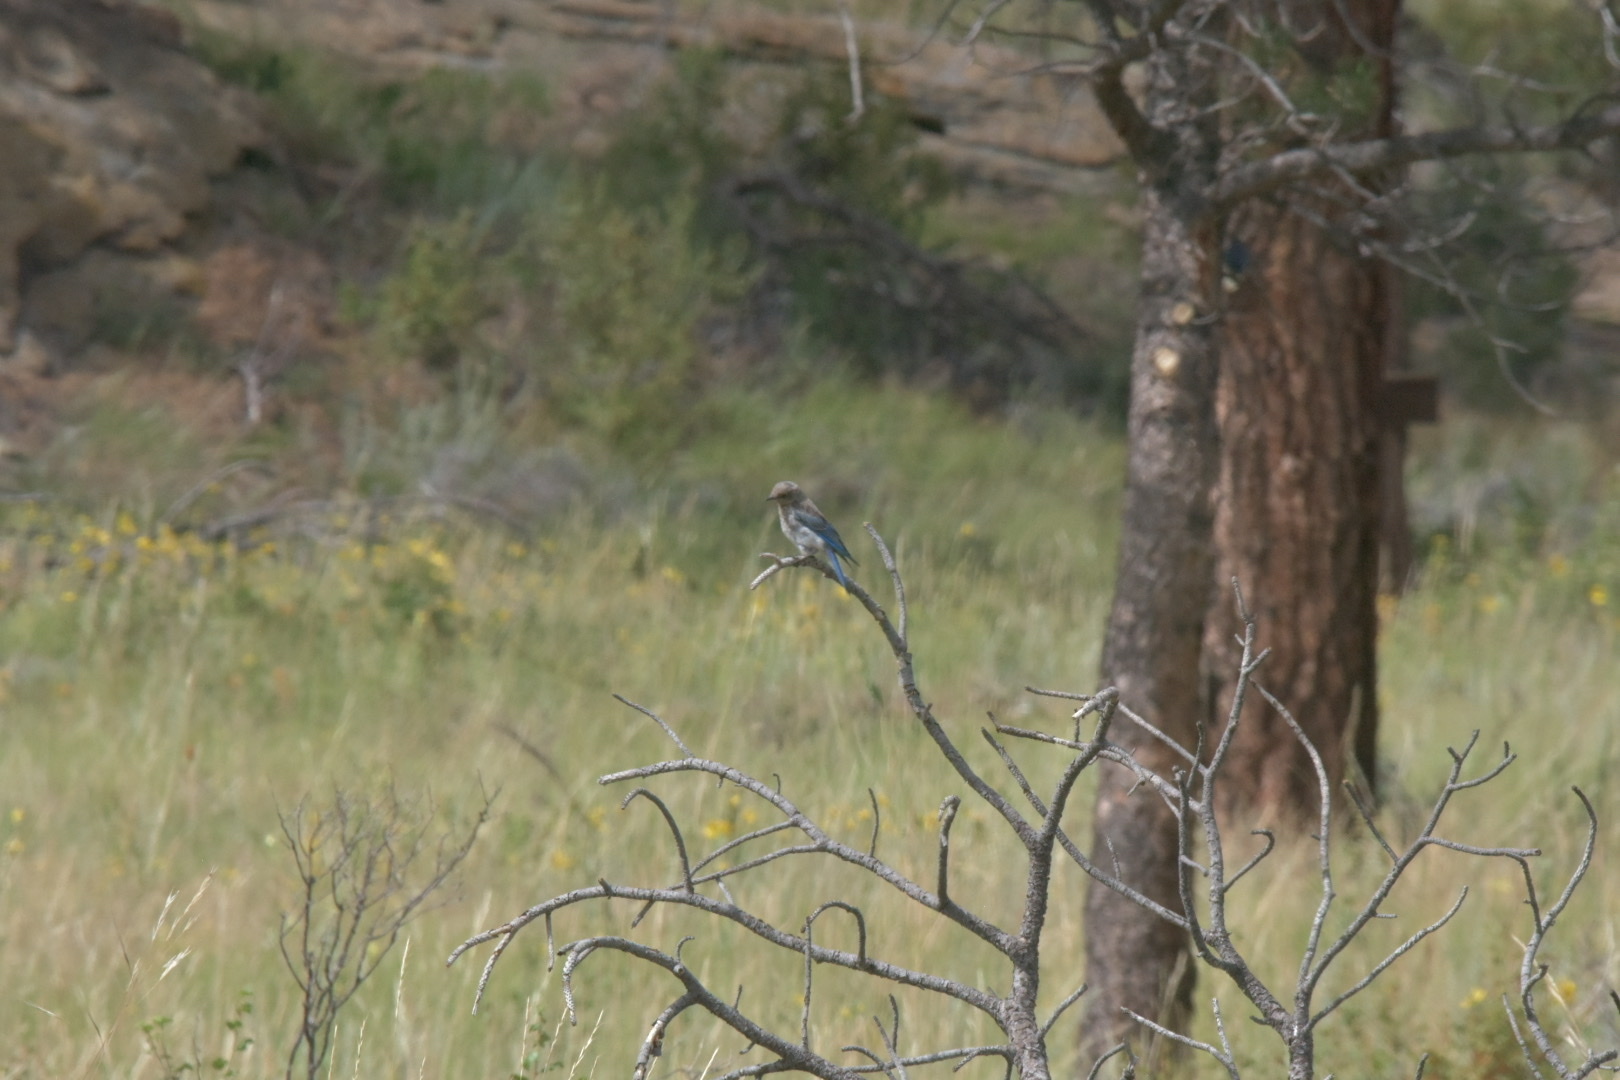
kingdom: Animalia
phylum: Chordata
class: Aves
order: Passeriformes
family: Turdidae
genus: Sialia
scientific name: Sialia currucoides
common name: Mountain bluebird
